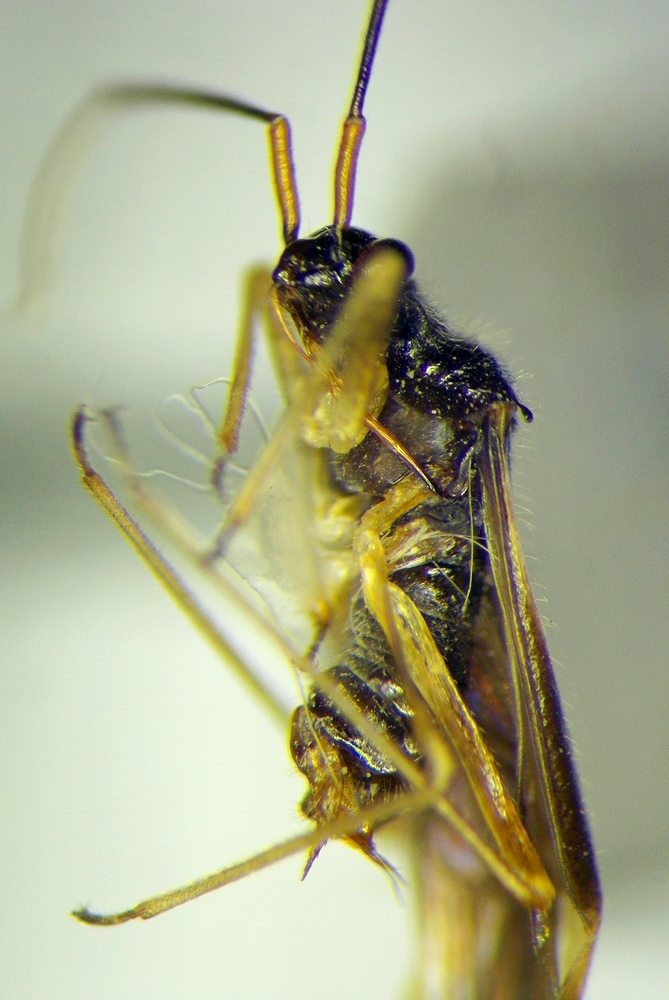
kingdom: Animalia
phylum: Arthropoda
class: Insecta
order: Hemiptera
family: Miridae
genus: Dryophilocoris
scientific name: Dryophilocoris flavoquadrimaculatus
